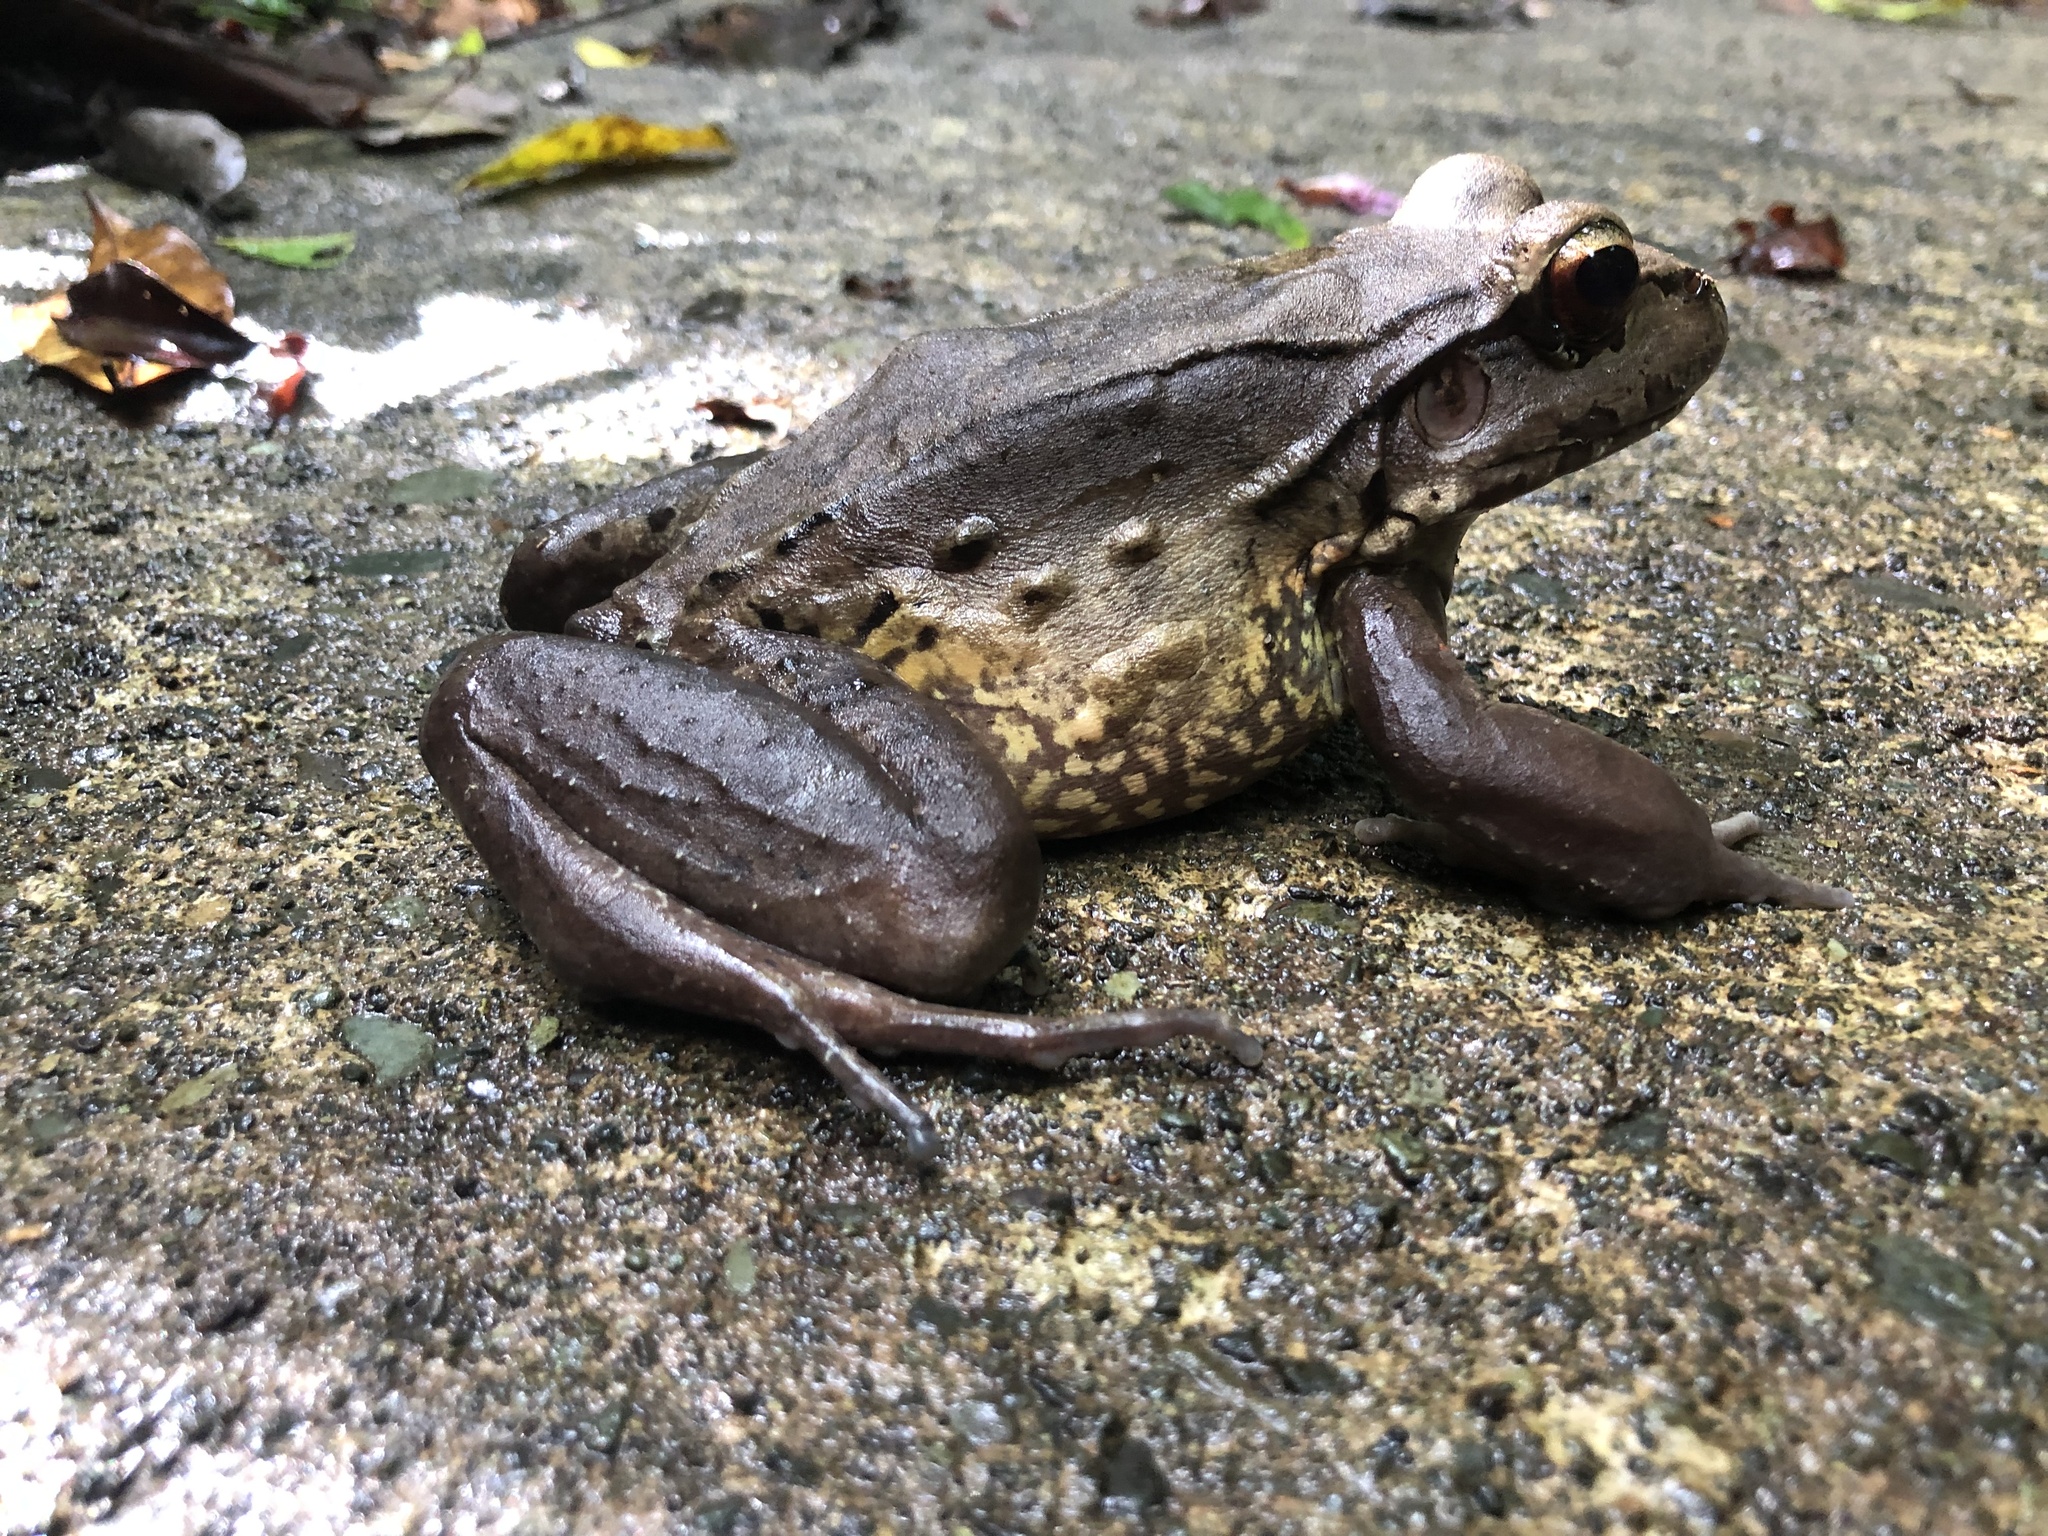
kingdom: Animalia
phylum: Chordata
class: Amphibia
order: Anura
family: Leptodactylidae
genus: Leptodactylus
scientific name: Leptodactylus savagei
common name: Savage's thin-toed frog
